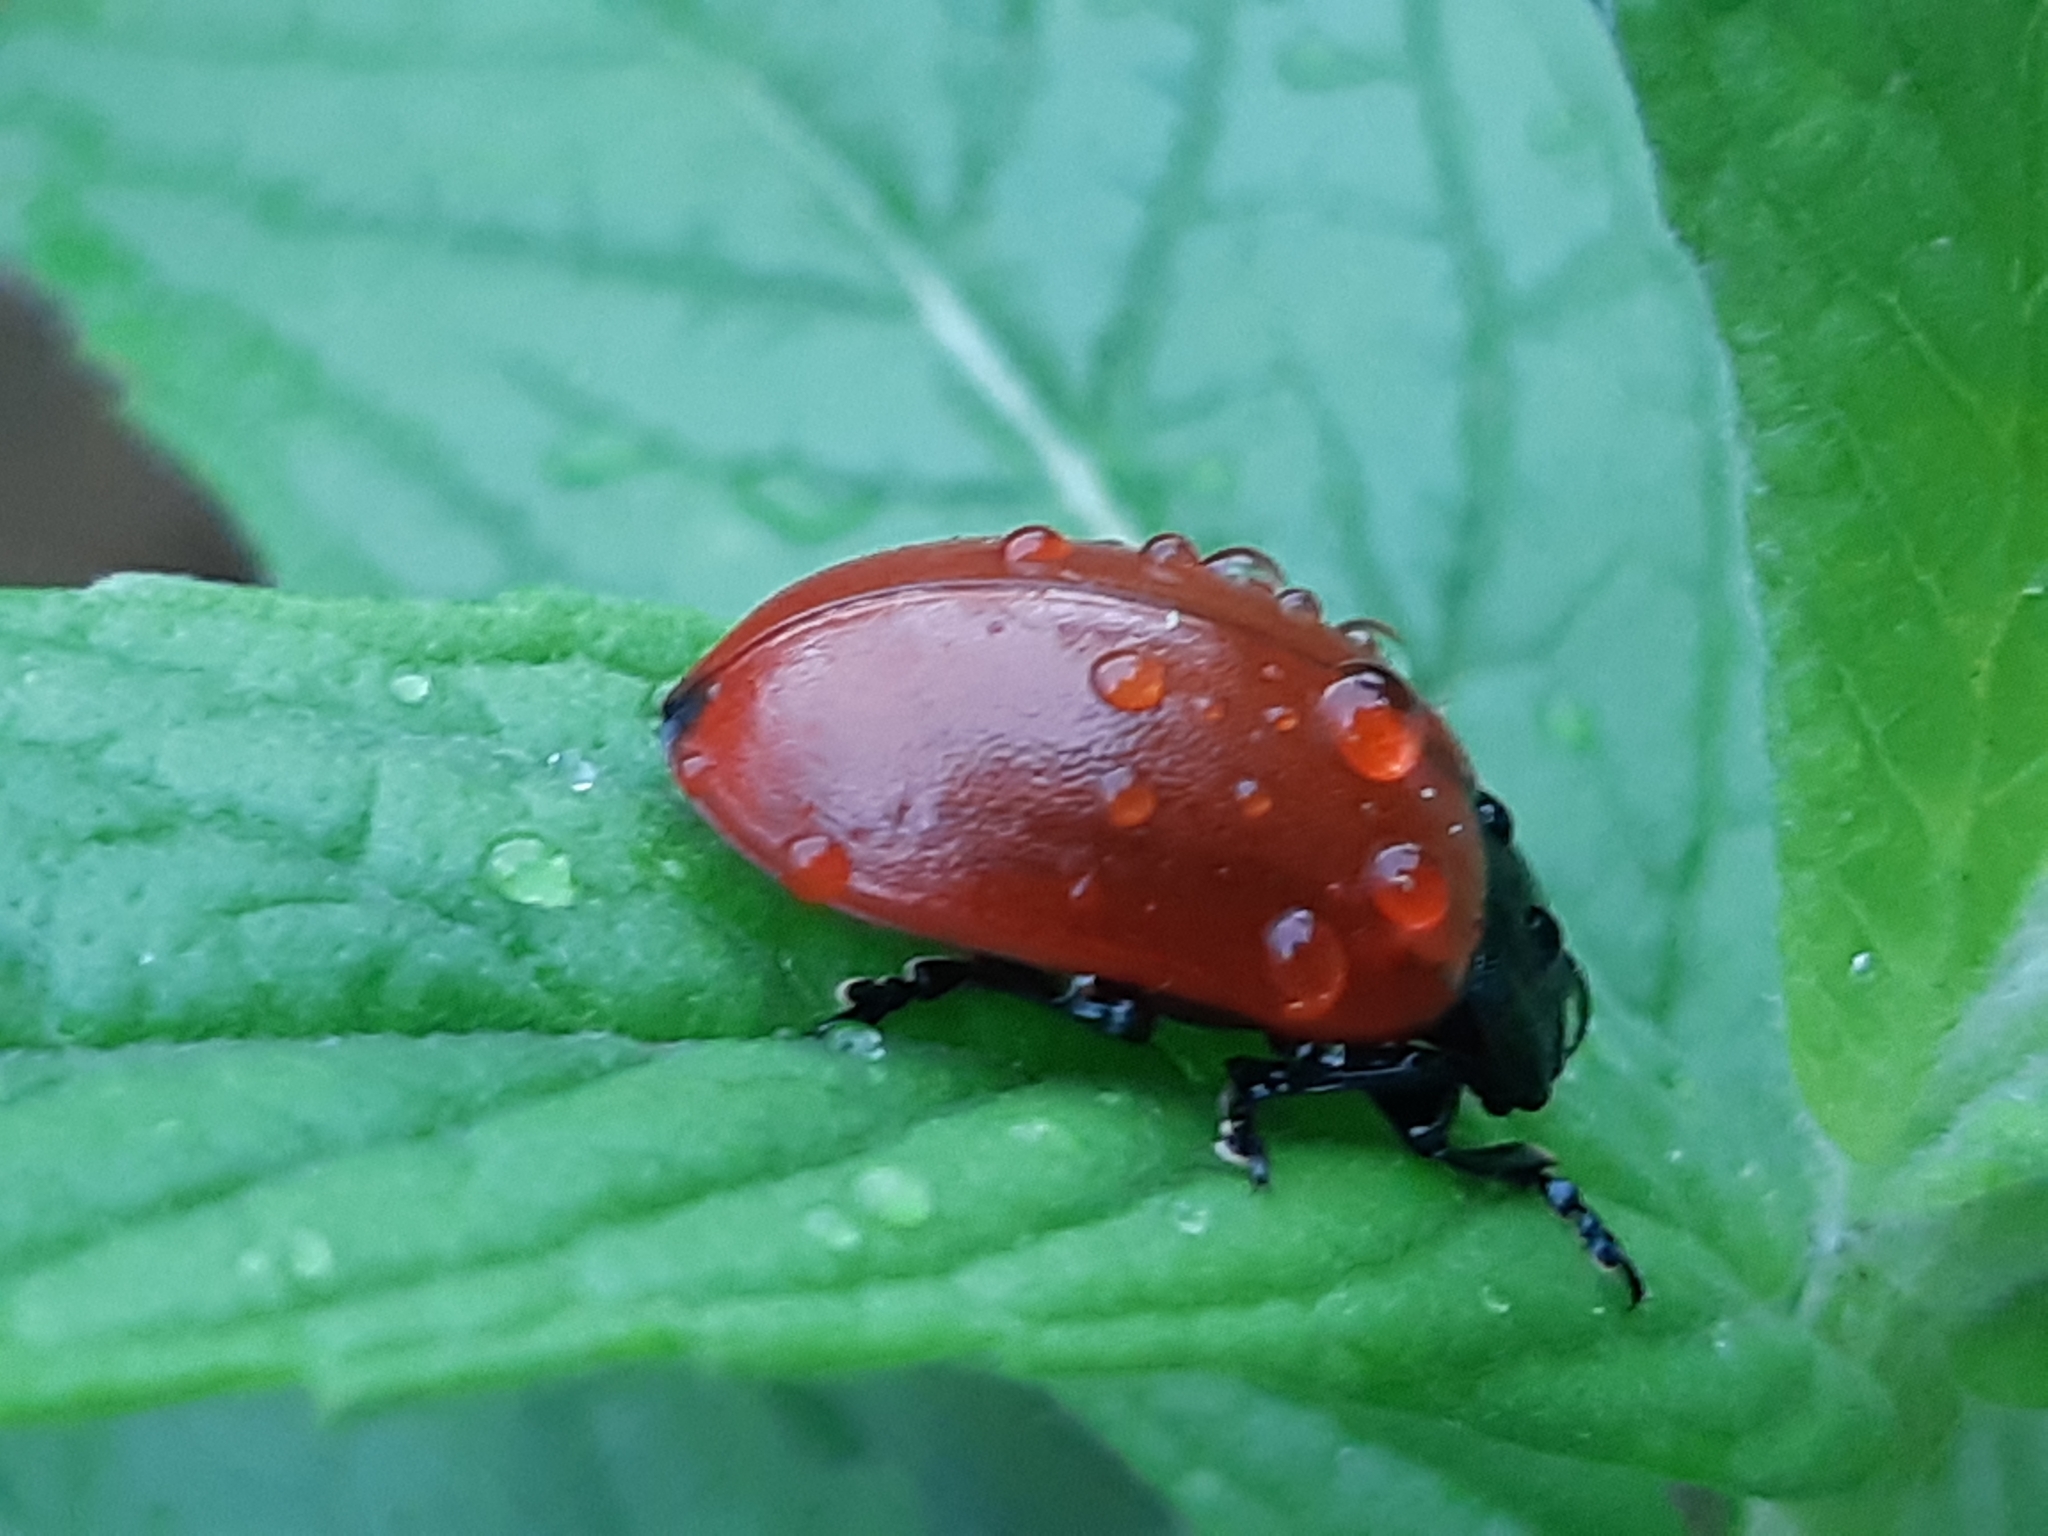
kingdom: Animalia
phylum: Arthropoda
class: Insecta
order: Coleoptera
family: Chrysomelidae
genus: Chrysomela
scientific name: Chrysomela populi
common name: Red poplar leaf beetle
